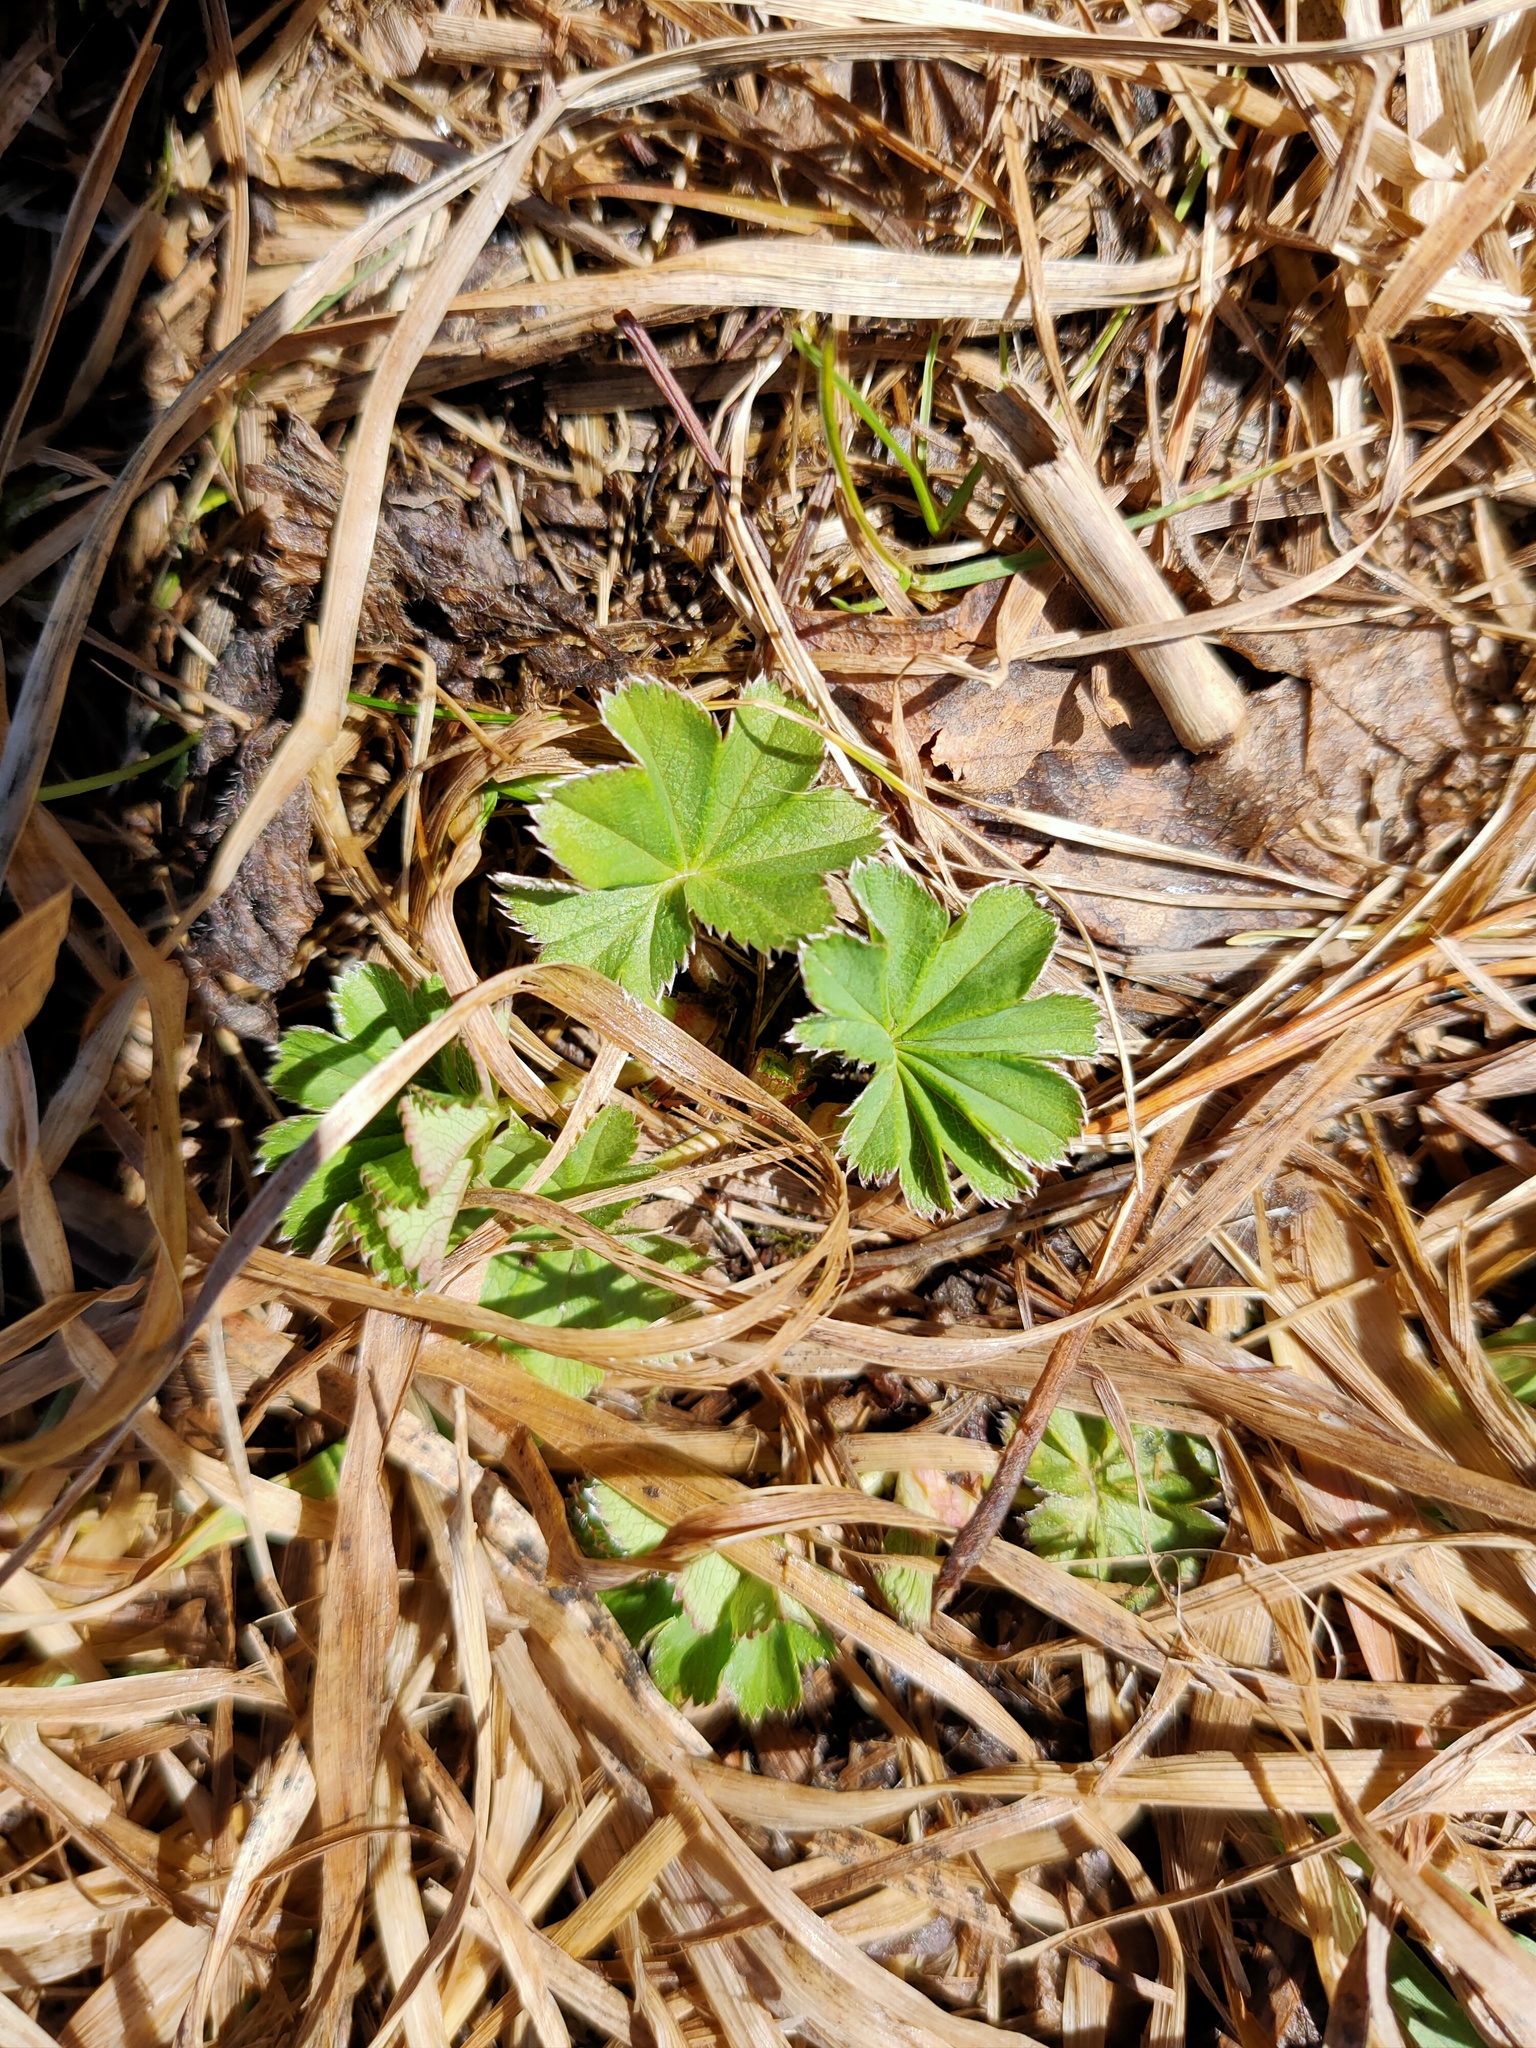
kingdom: Plantae
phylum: Tracheophyta
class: Magnoliopsida
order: Rosales
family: Rosaceae
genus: Alchemilla
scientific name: Alchemilla
